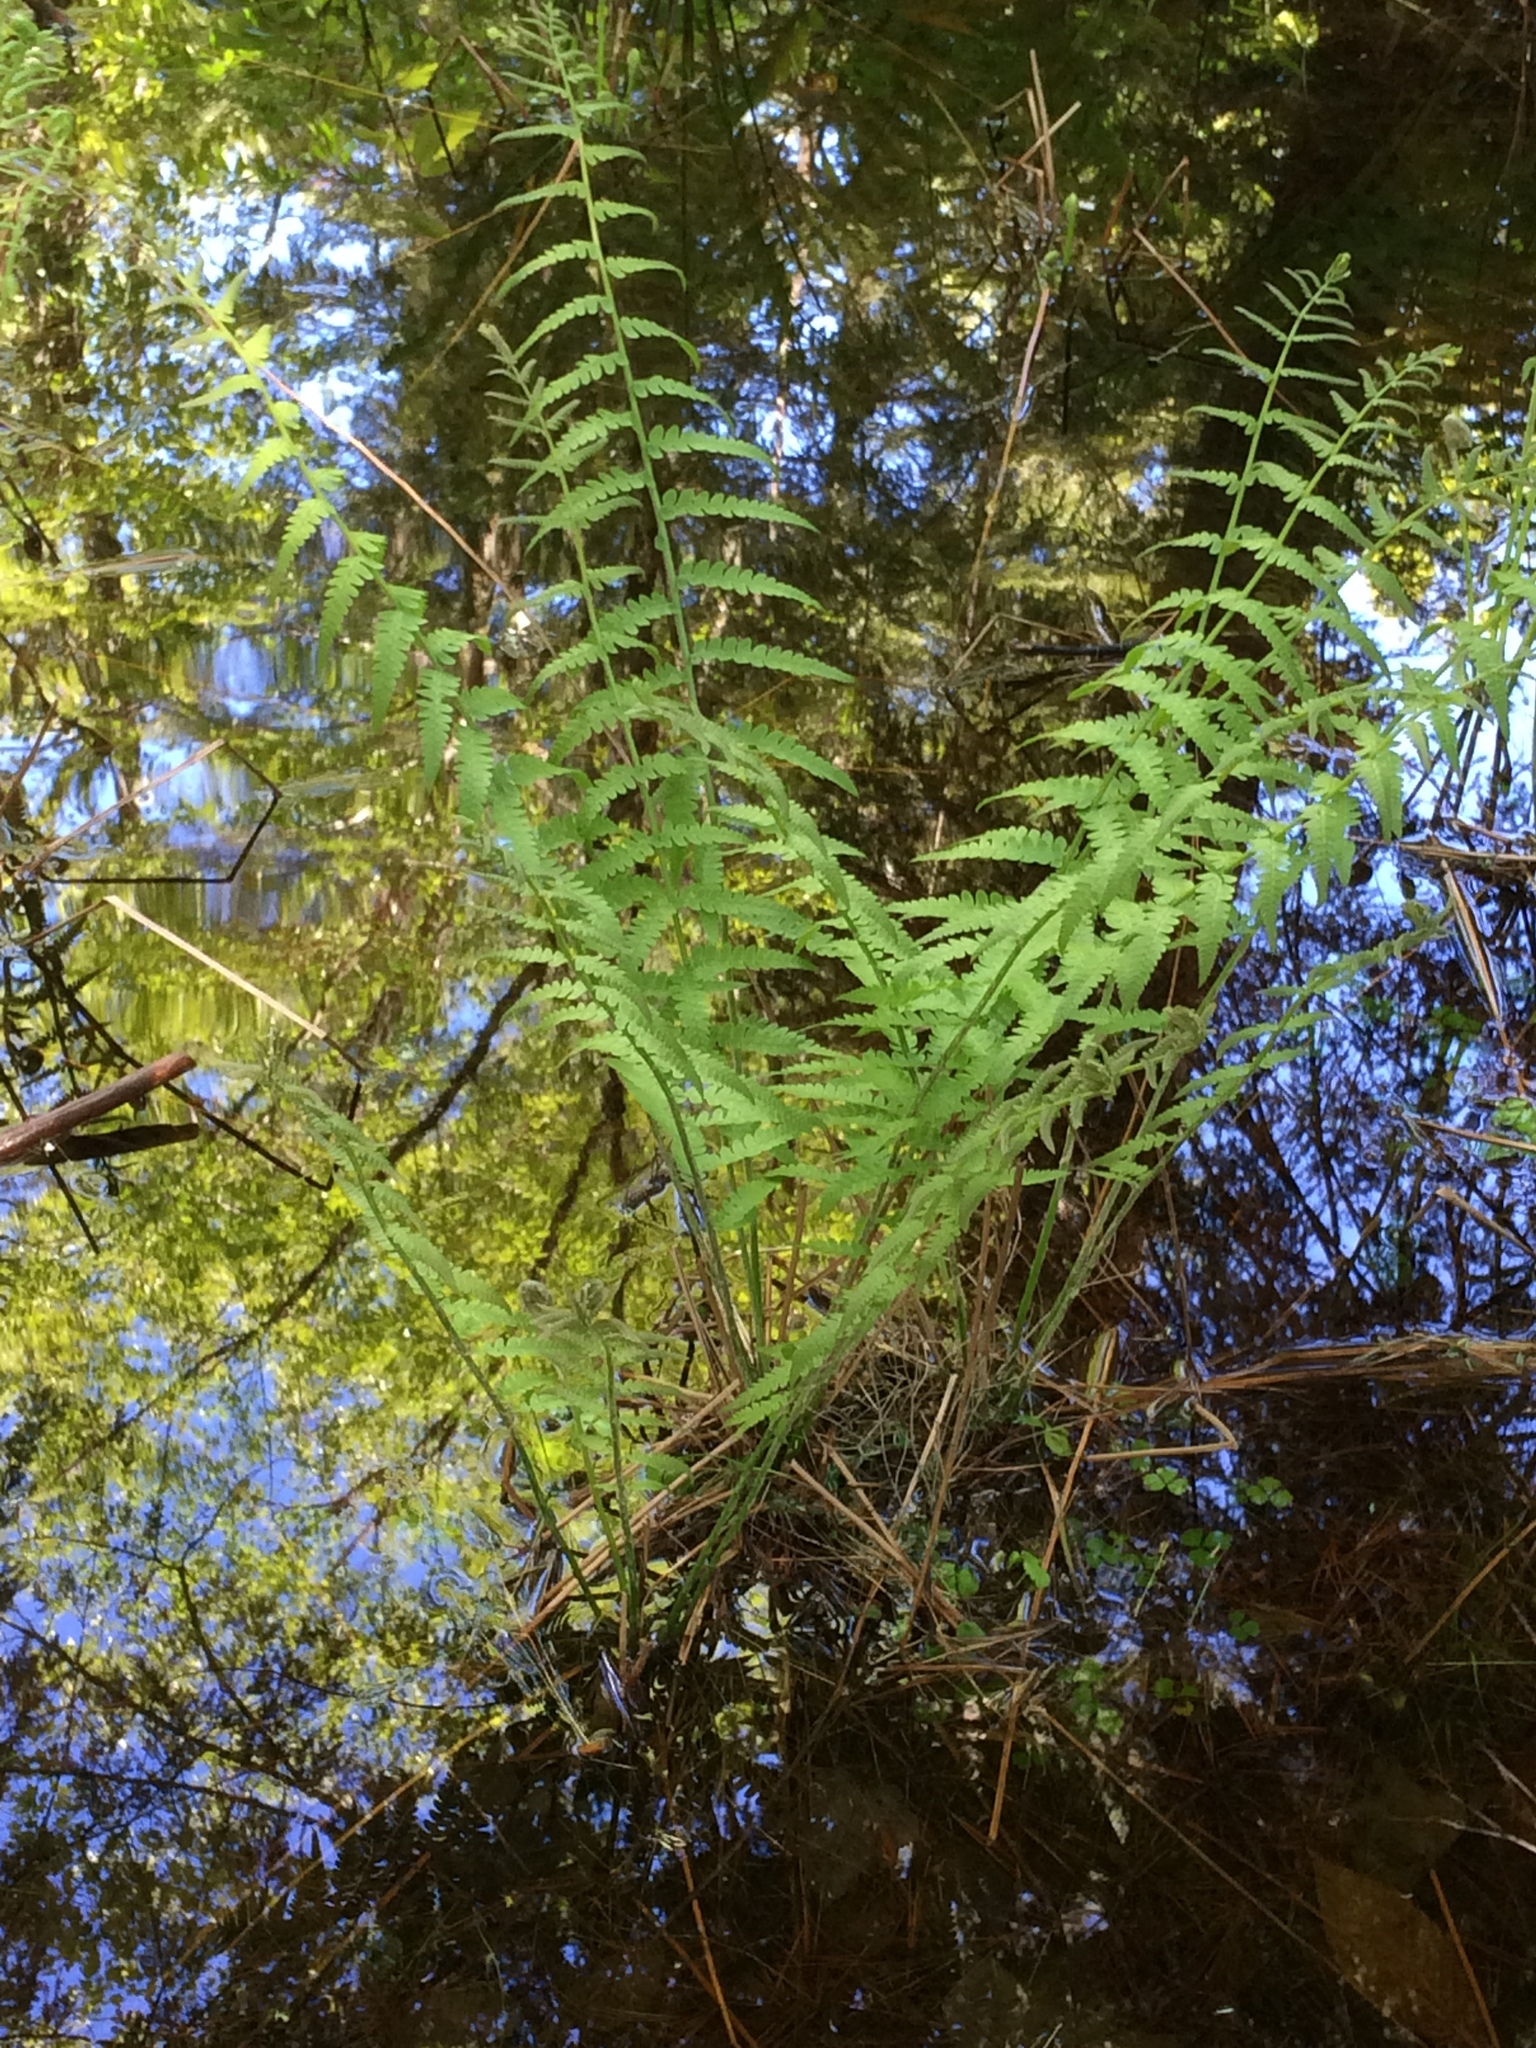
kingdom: Plantae
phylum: Tracheophyta
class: Polypodiopsida
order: Osmundales
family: Osmundaceae
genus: Osmundastrum
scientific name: Osmundastrum cinnamomeum
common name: Cinnamon fern
